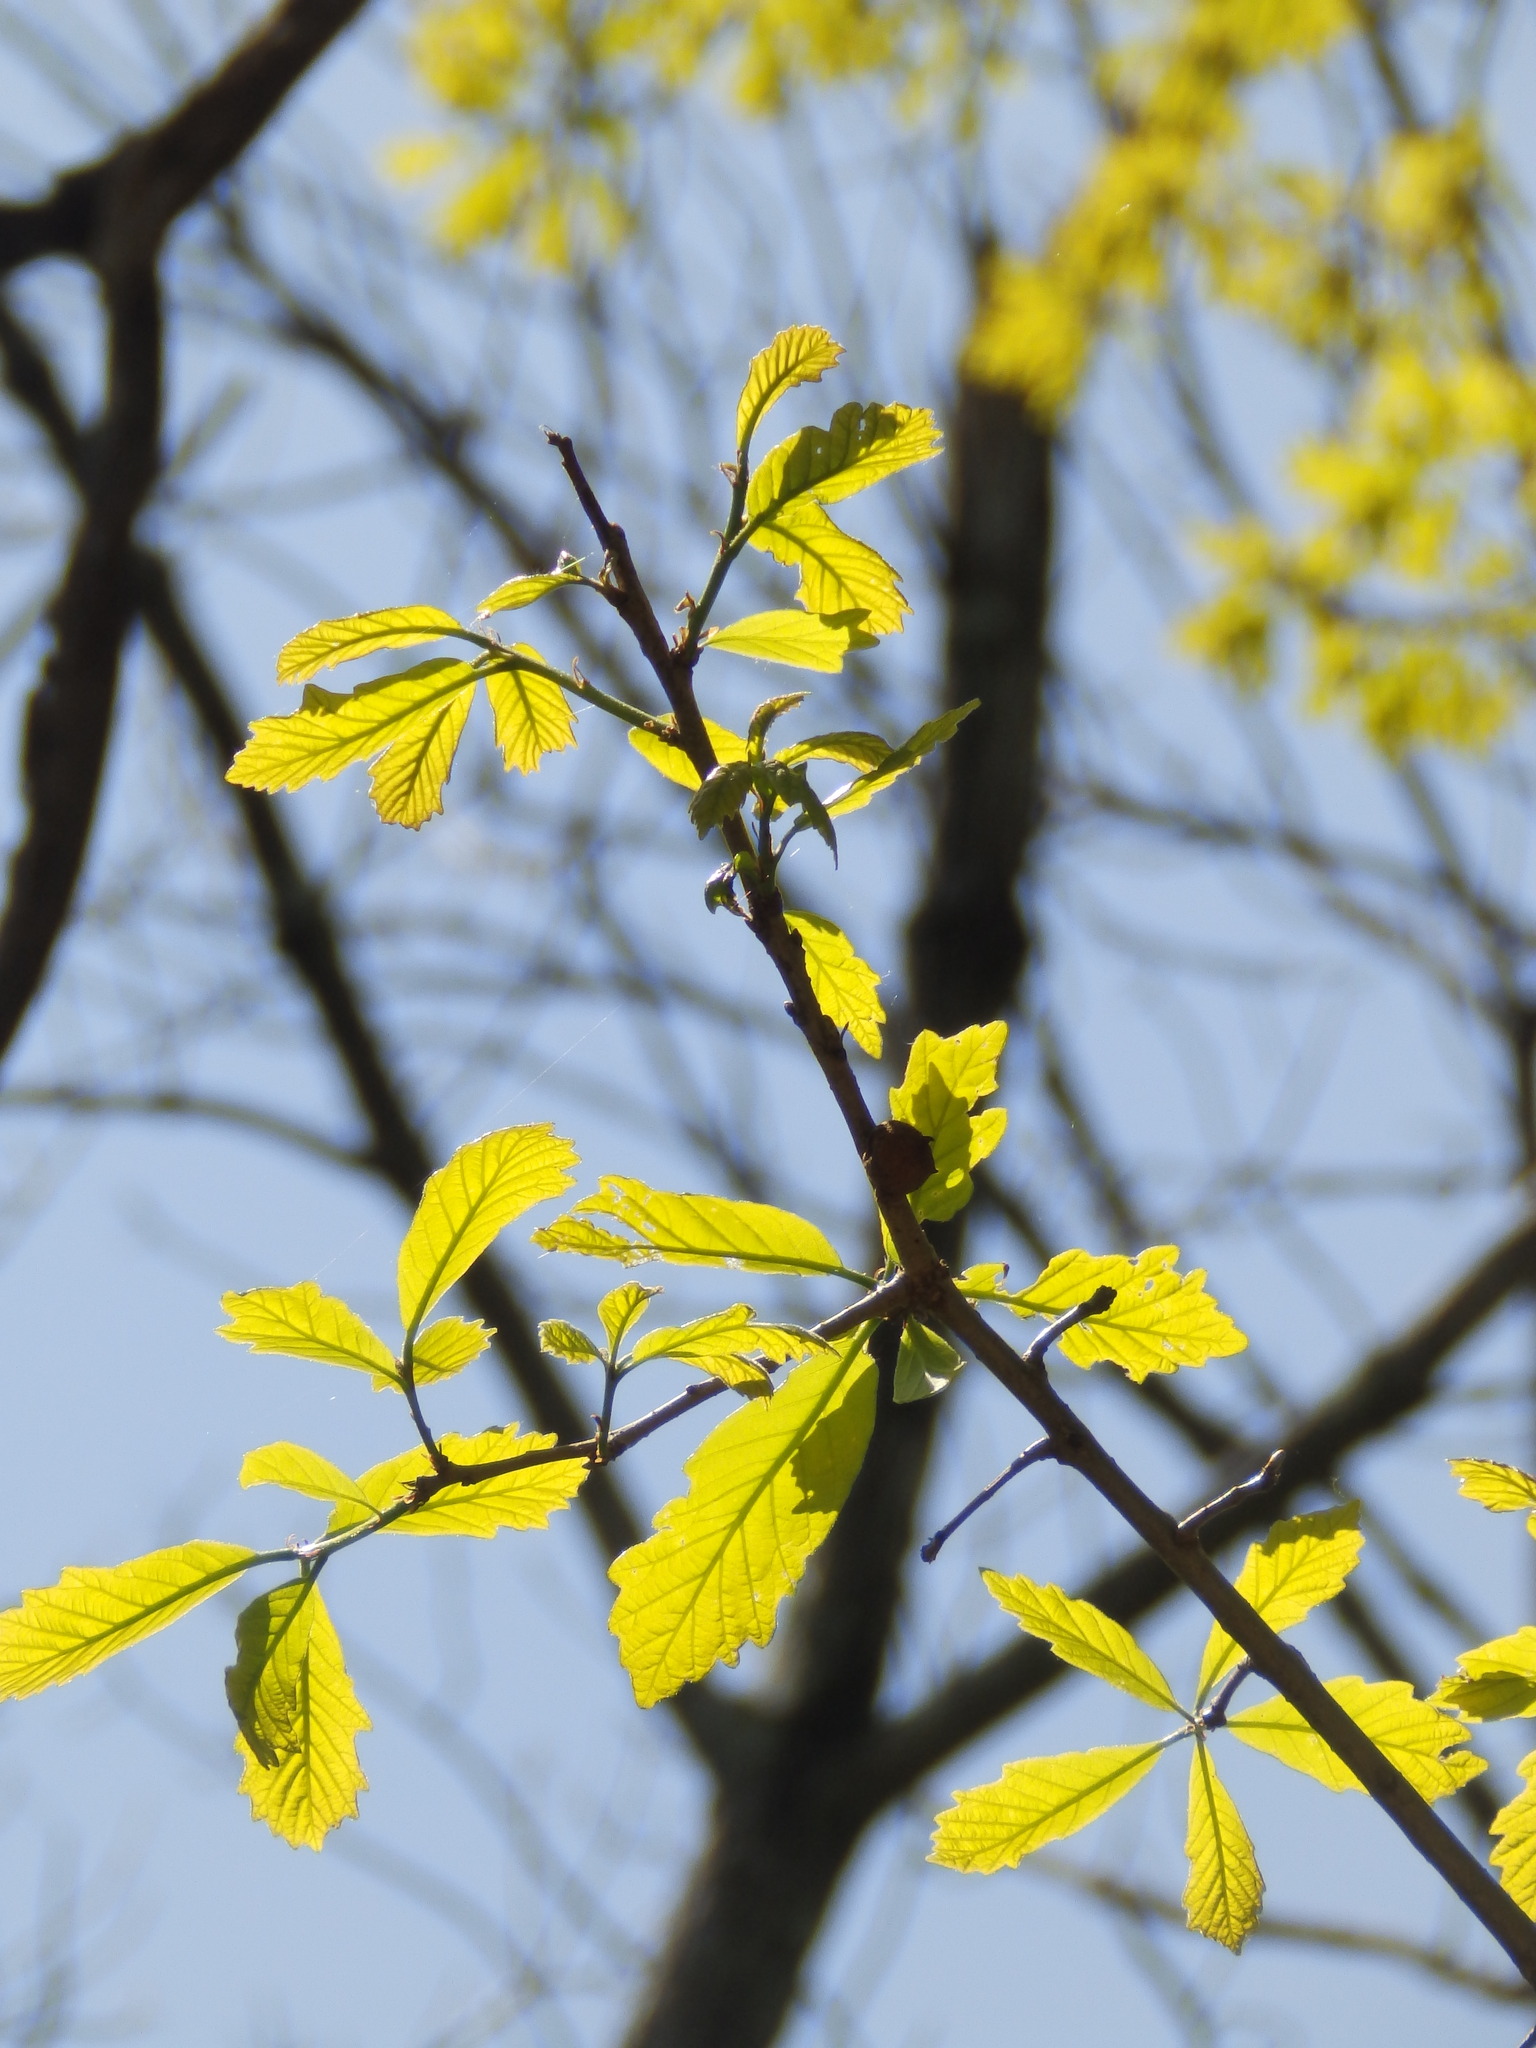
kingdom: Animalia
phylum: Arthropoda
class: Insecta
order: Hymenoptera
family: Cynipidae
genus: Disholcaspis
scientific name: Disholcaspis
